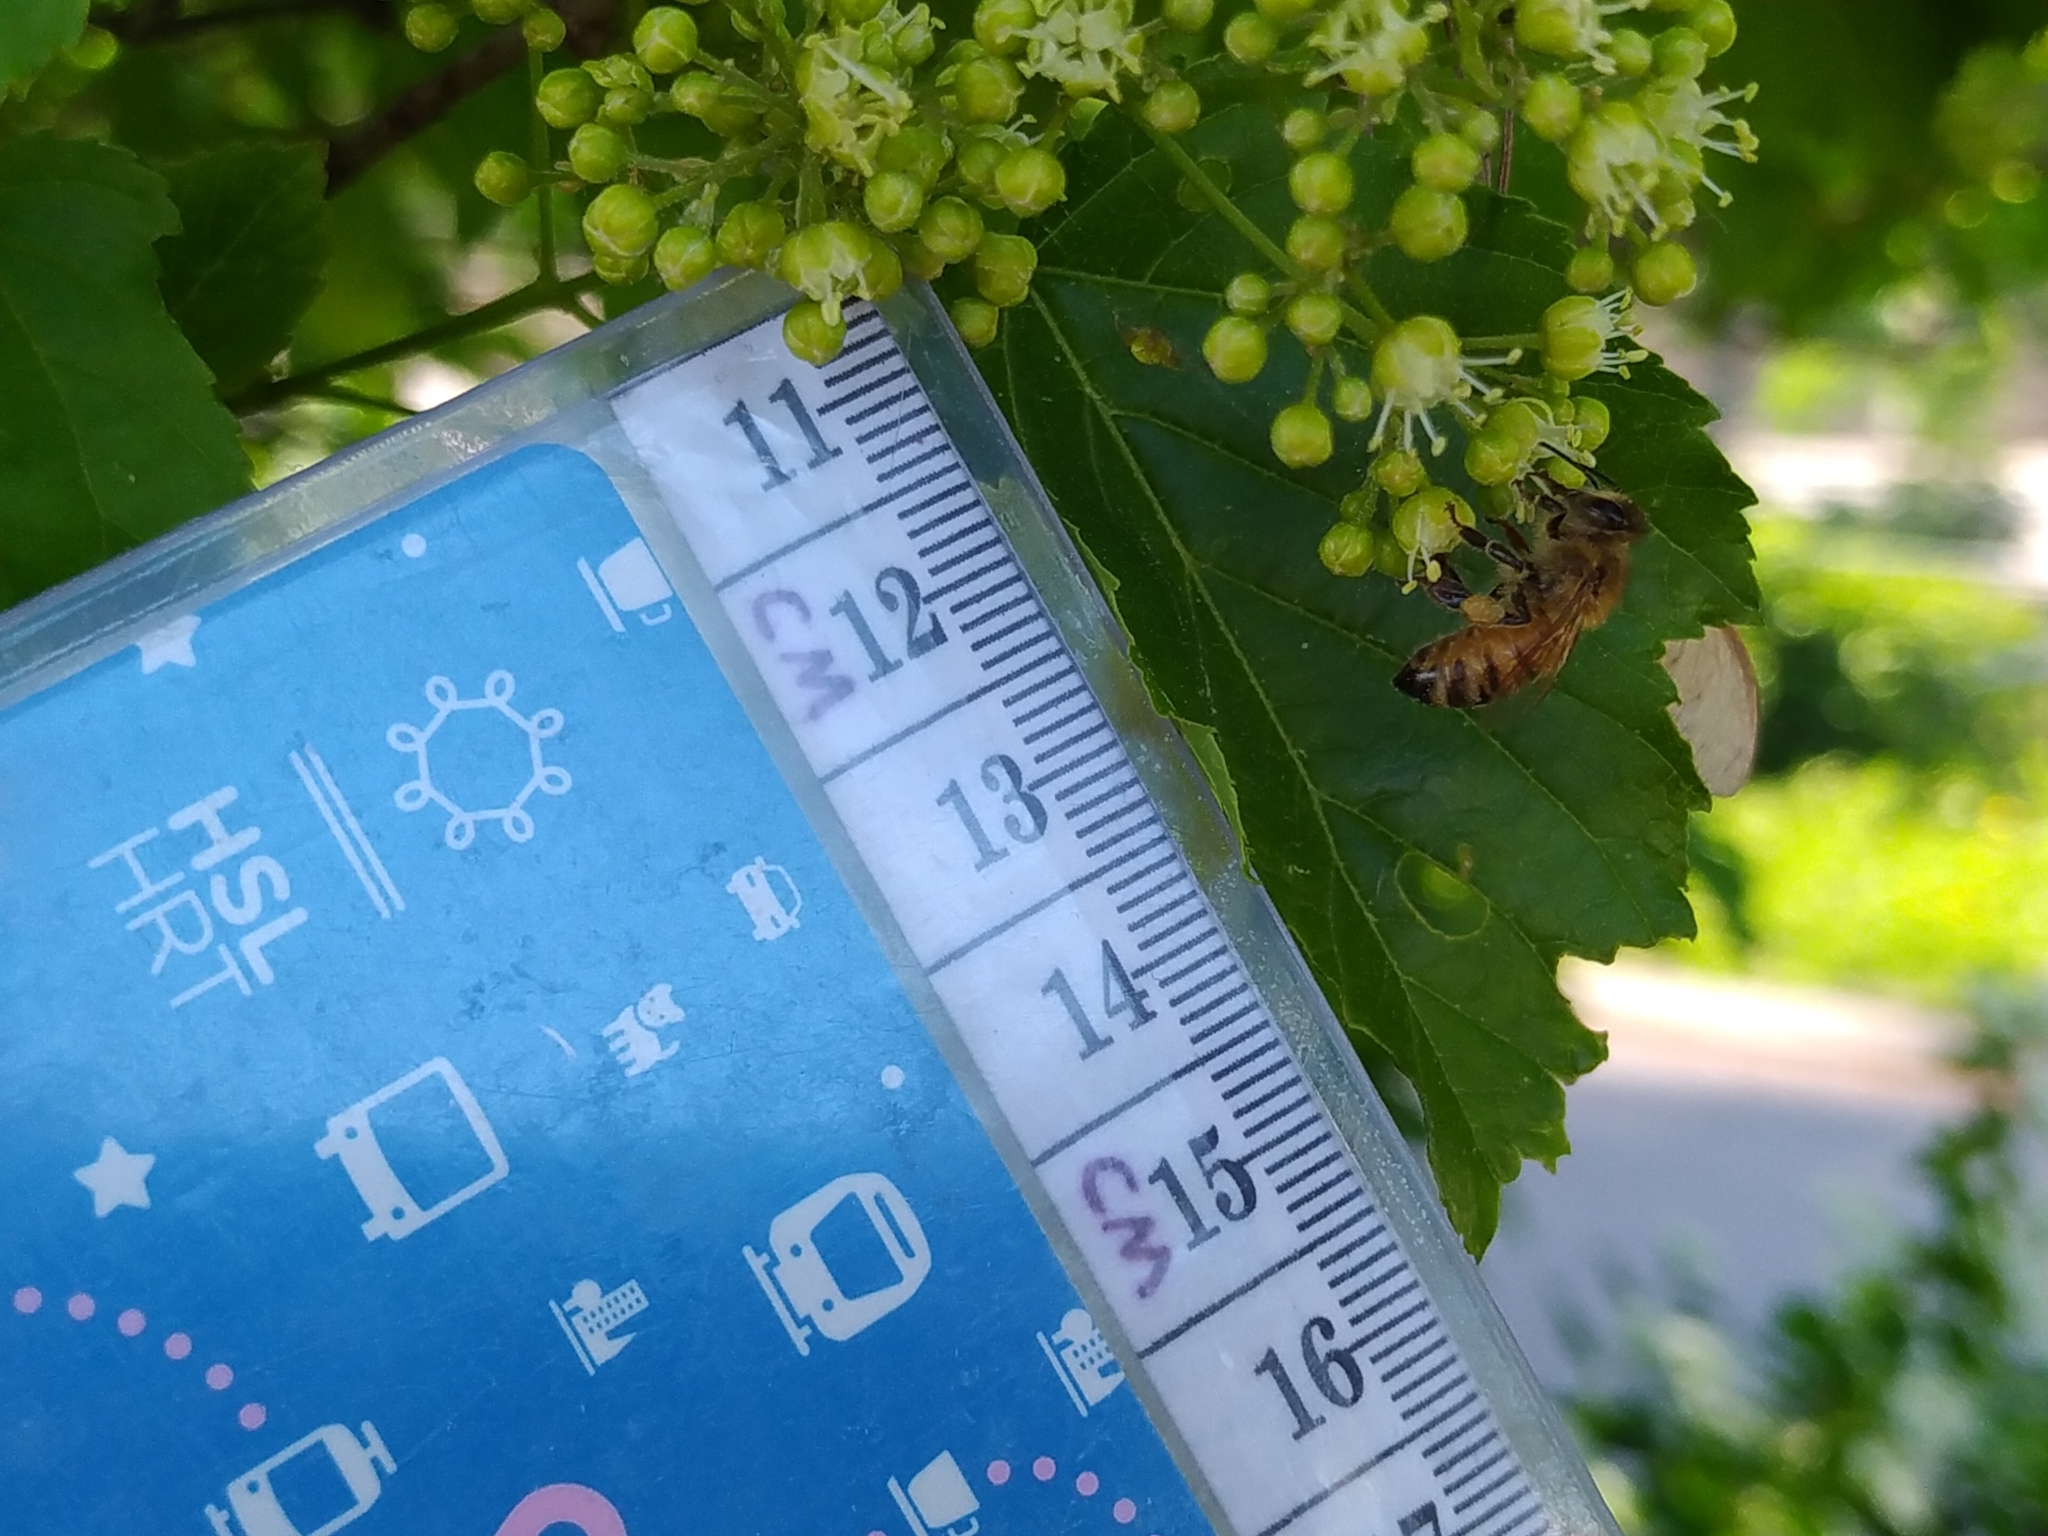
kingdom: Animalia
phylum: Arthropoda
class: Insecta
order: Hymenoptera
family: Apidae
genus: Apis
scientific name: Apis mellifera
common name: Honey bee
